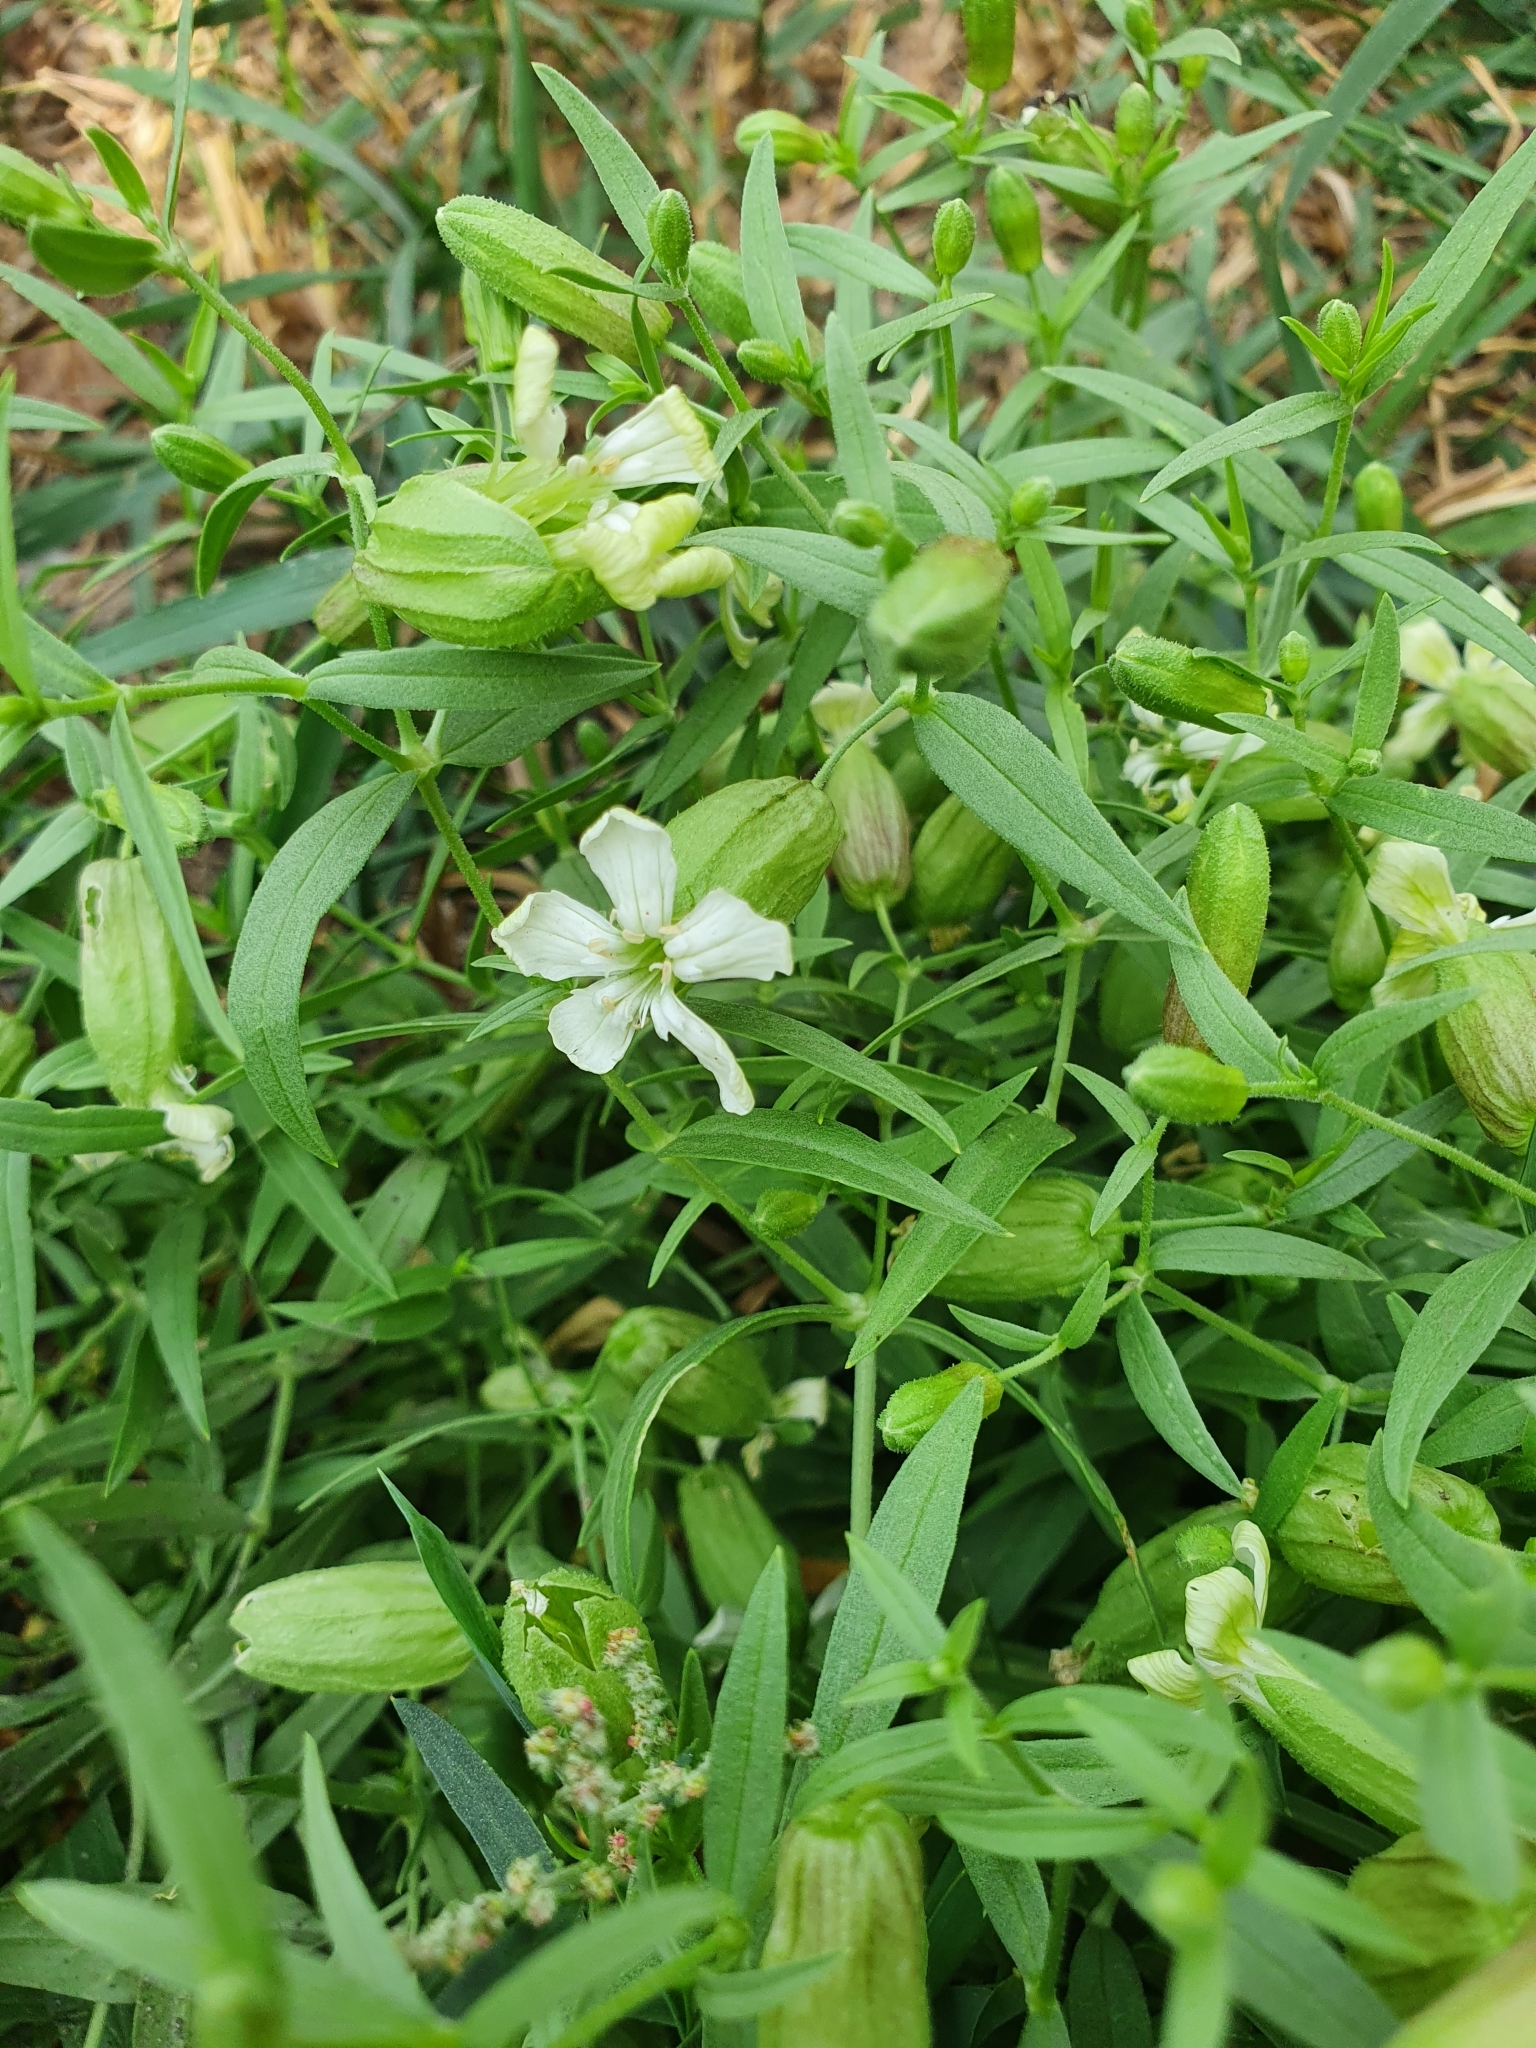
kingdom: Plantae
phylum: Tracheophyta
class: Magnoliopsida
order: Caryophyllales
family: Caryophyllaceae
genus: Silene
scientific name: Silene procumbens
